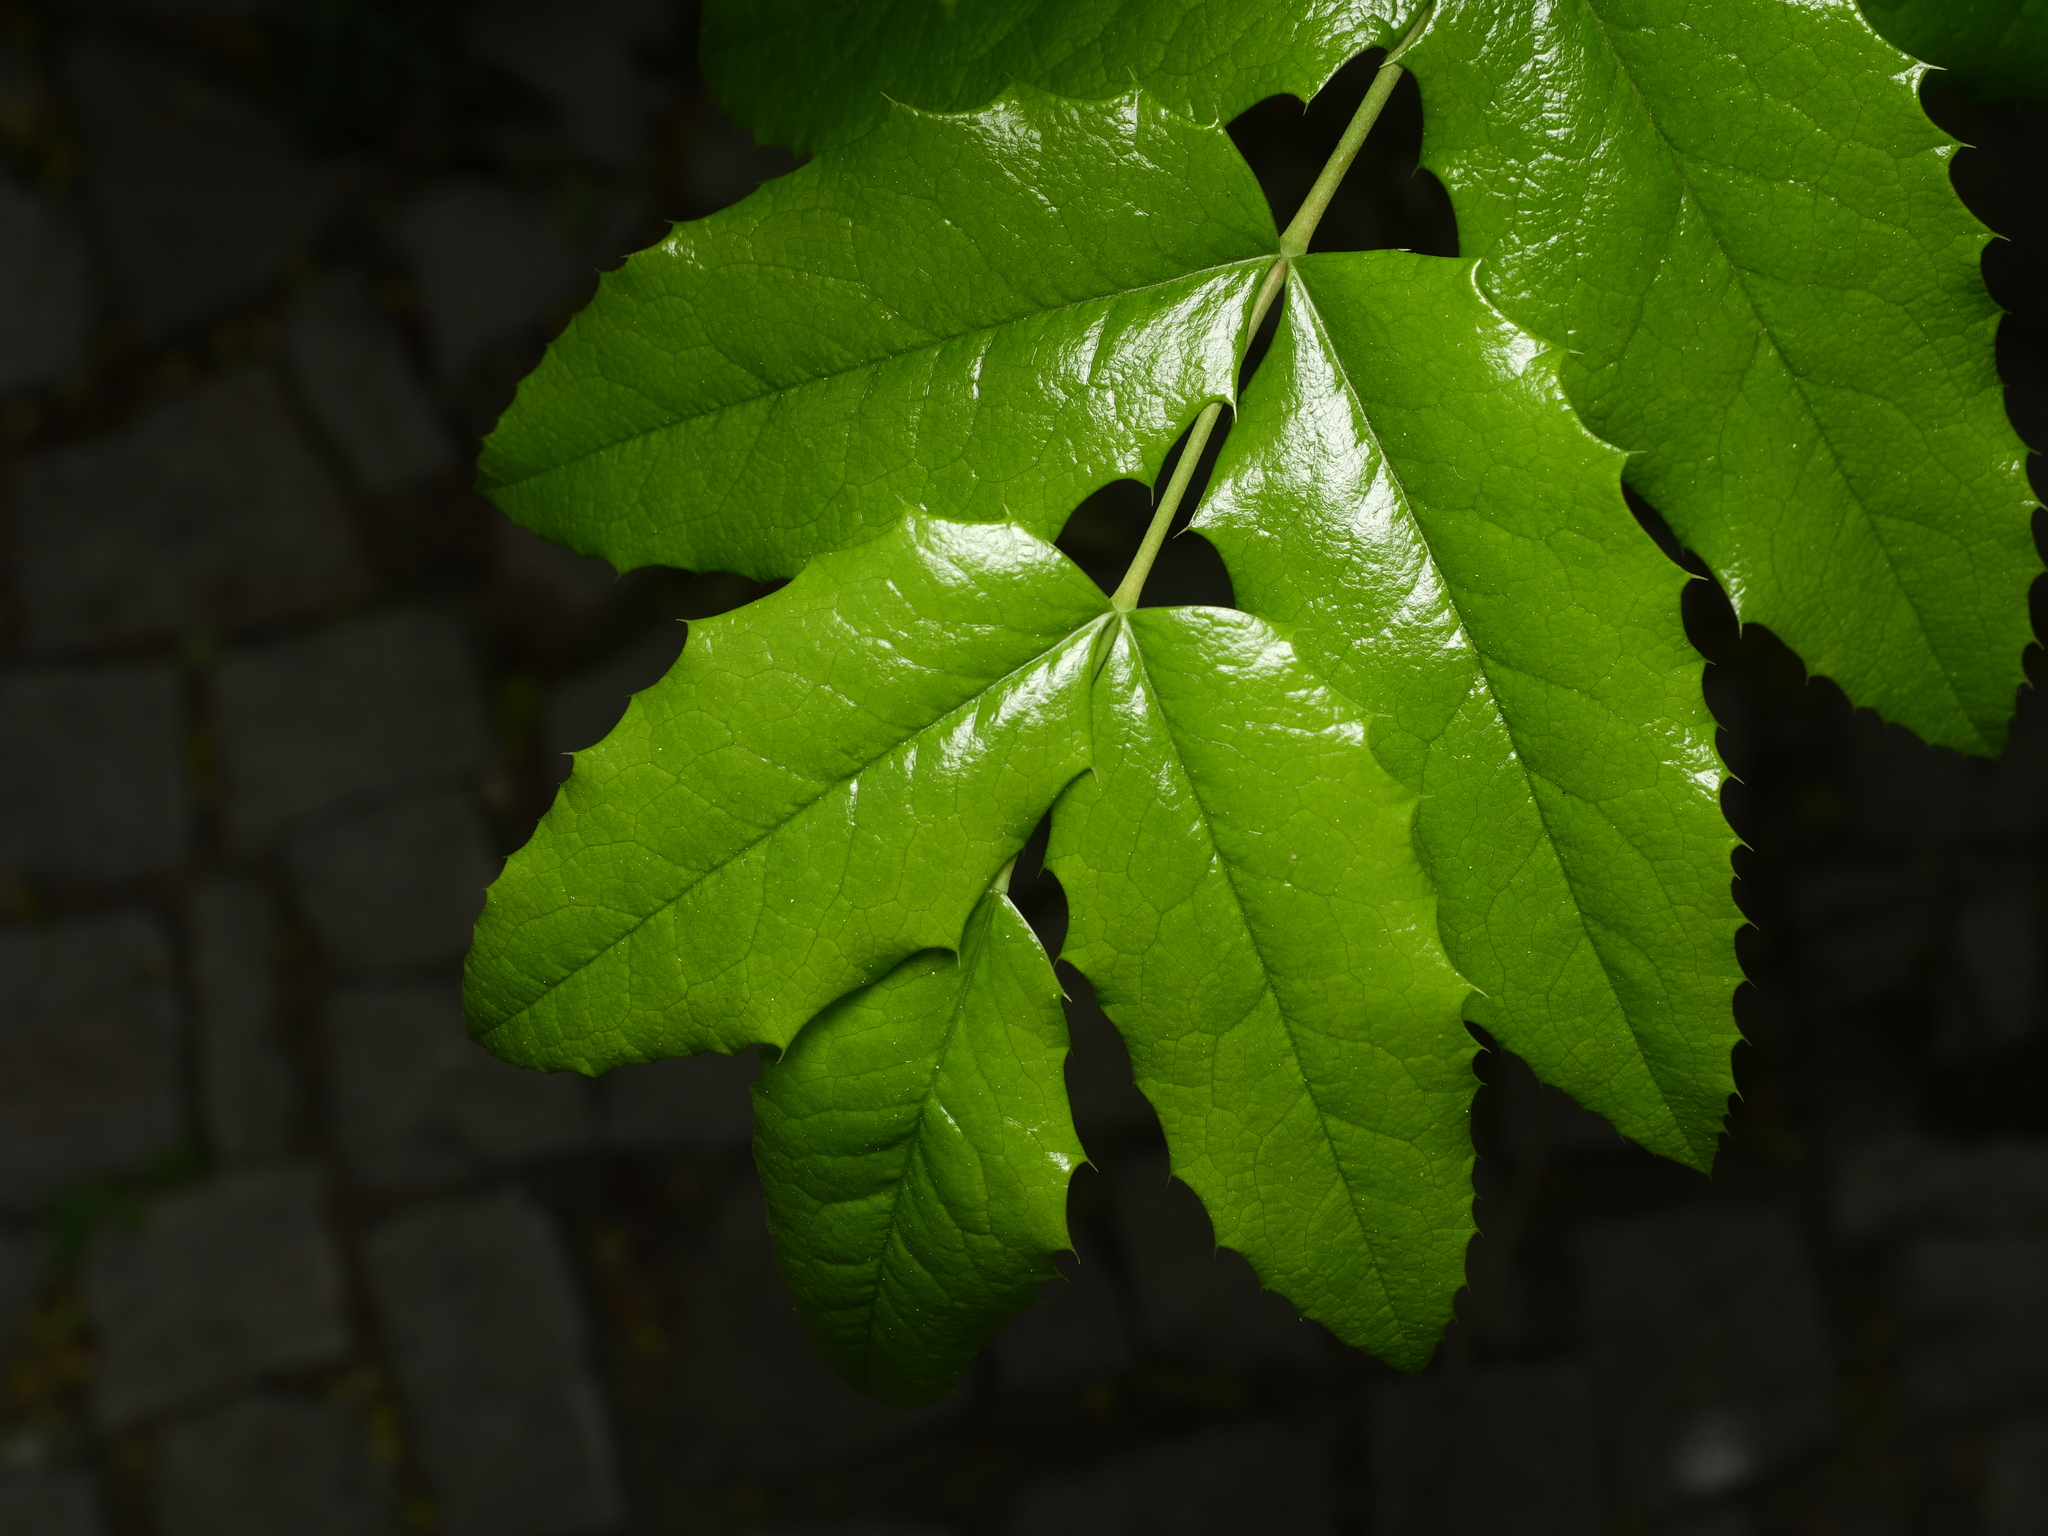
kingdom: Plantae
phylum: Tracheophyta
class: Magnoliopsida
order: Ranunculales
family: Berberidaceae
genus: Mahonia
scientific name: Mahonia aquifolium
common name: Oregon-grape
